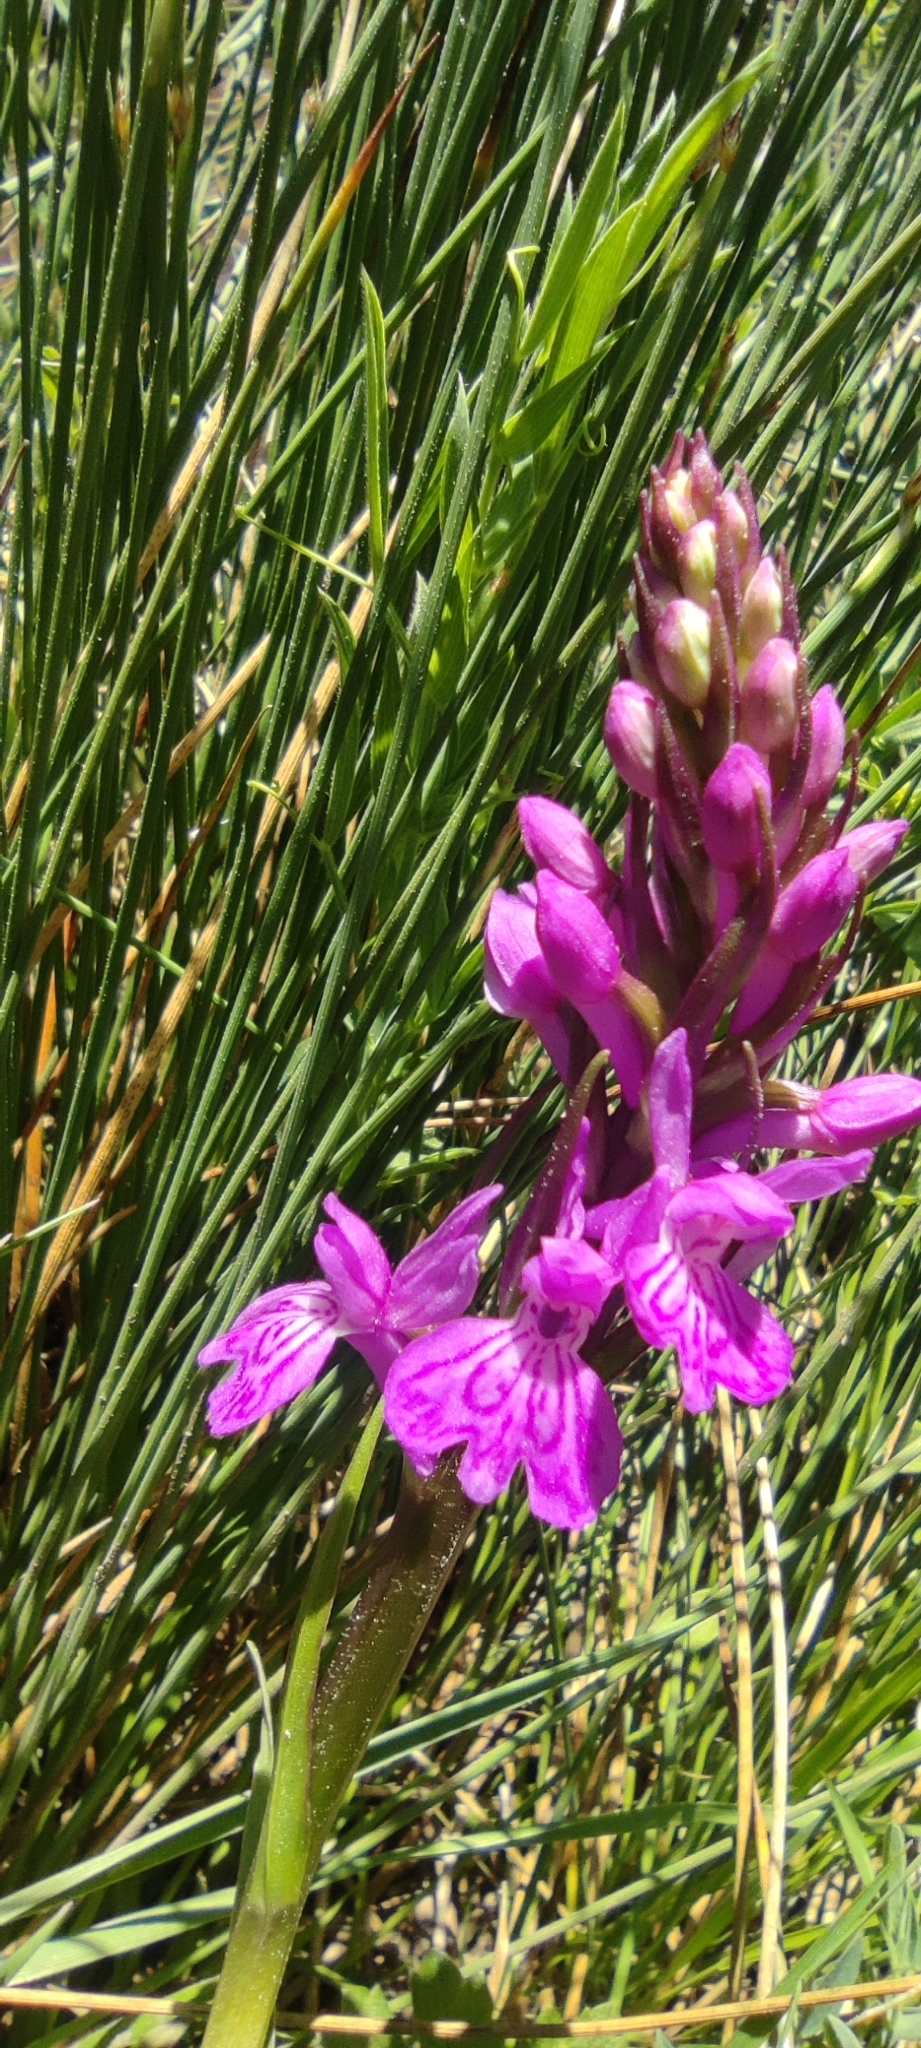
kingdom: Plantae
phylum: Tracheophyta
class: Liliopsida
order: Asparagales
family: Orchidaceae
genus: Dactylorhiza
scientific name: Dactylorhiza elata
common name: Stately dactylorhiza
